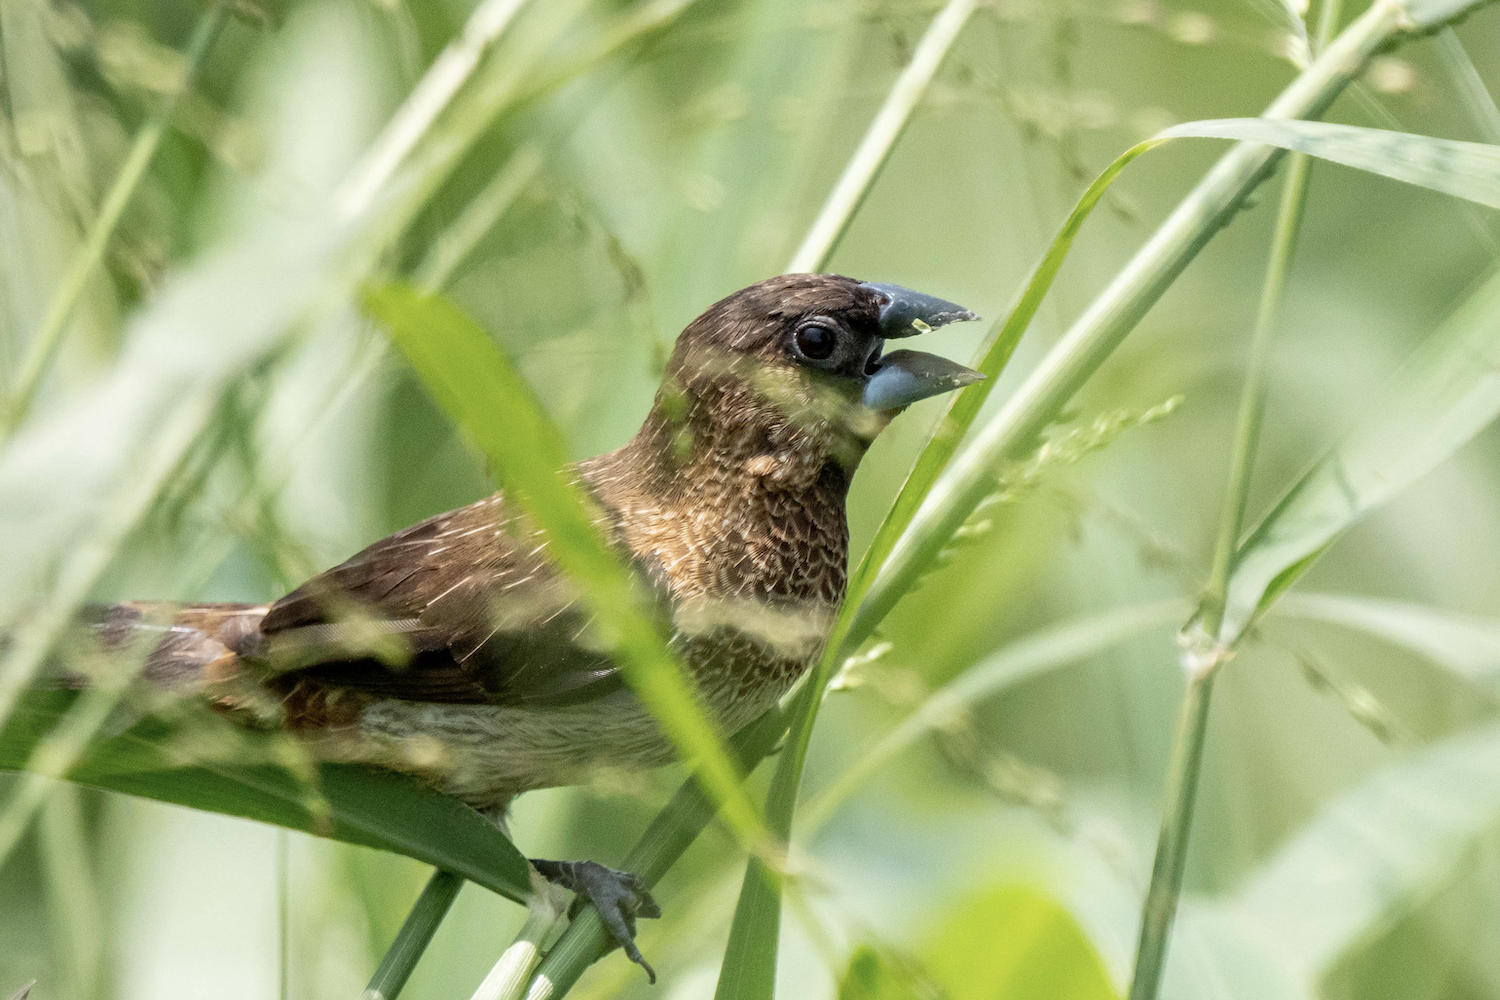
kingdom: Animalia
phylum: Chordata
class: Aves
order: Passeriformes
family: Estrildidae
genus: Lonchura
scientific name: Lonchura striata
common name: White-rumped munia
